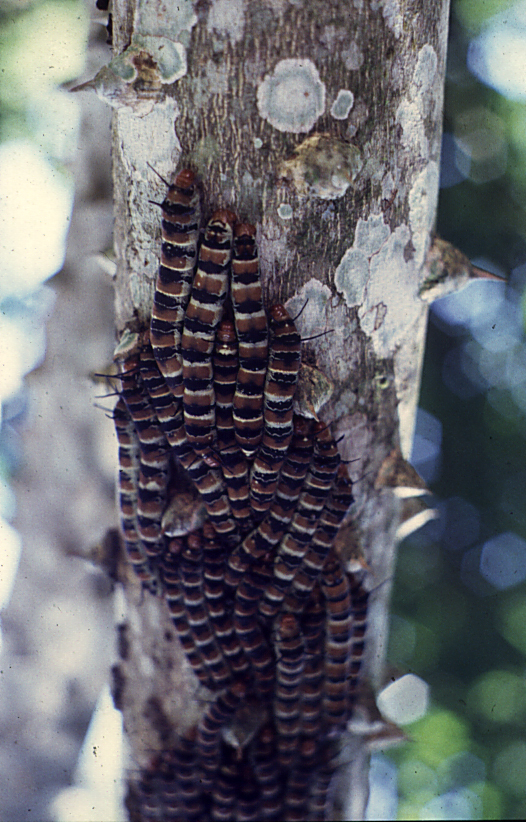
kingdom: Animalia
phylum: Arthropoda
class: Insecta
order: Lepidoptera
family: Saturniidae
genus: Arsenura
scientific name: Arsenura armida
